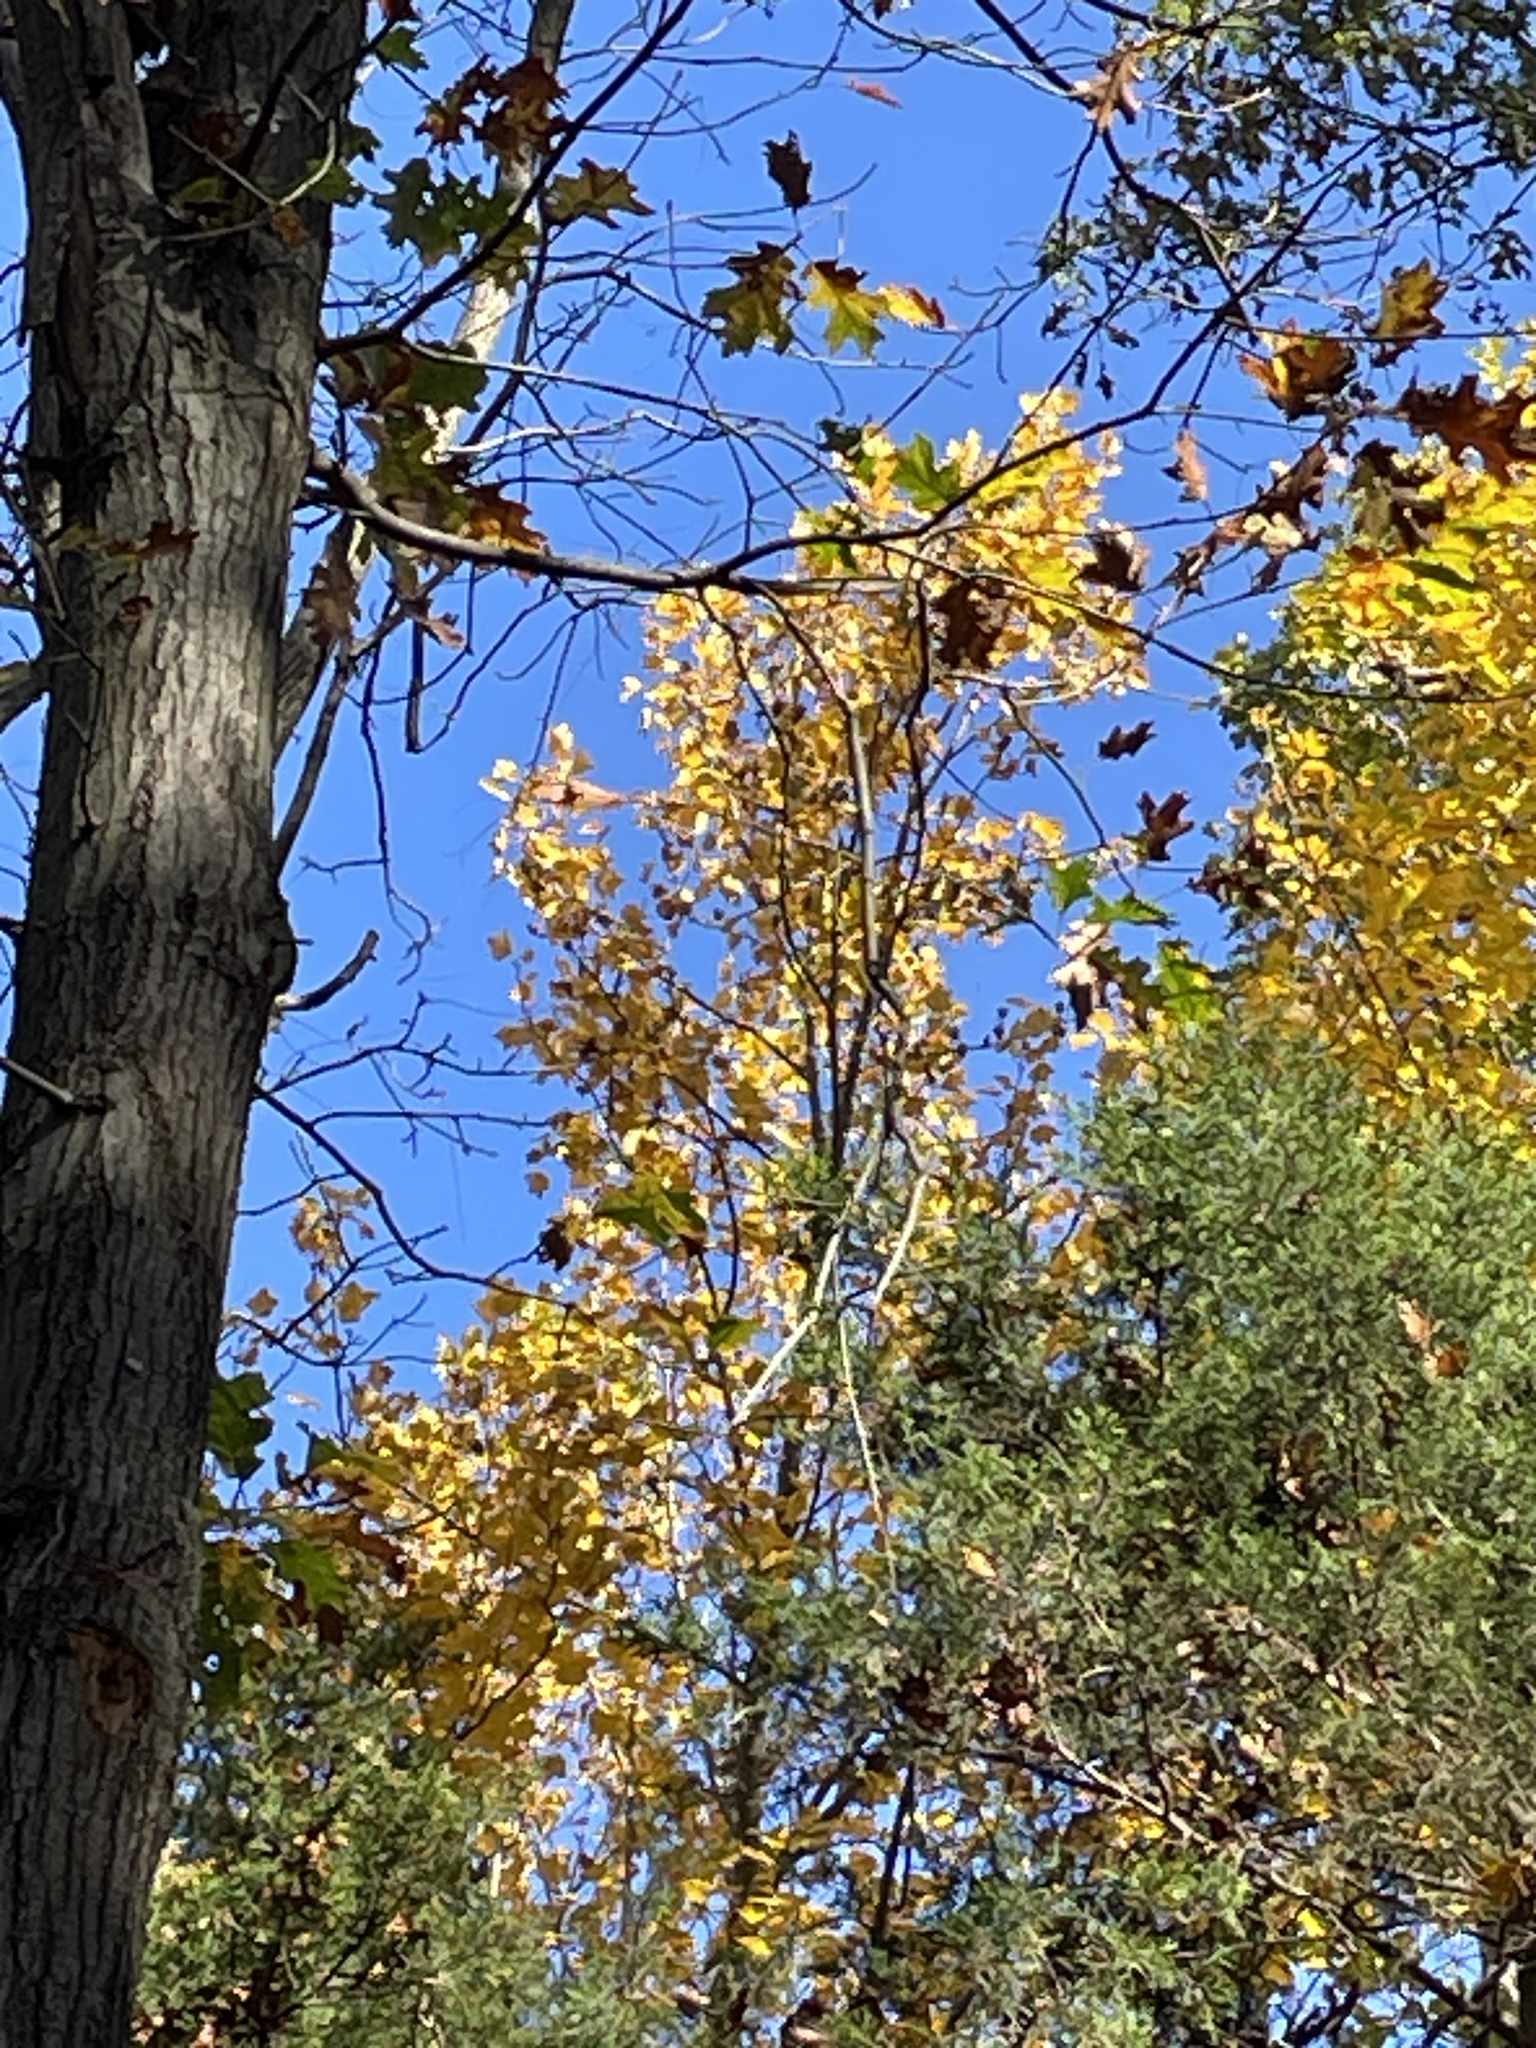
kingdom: Plantae
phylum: Tracheophyta
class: Magnoliopsida
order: Magnoliales
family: Magnoliaceae
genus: Liriodendron
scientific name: Liriodendron tulipifera
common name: Tulip tree
